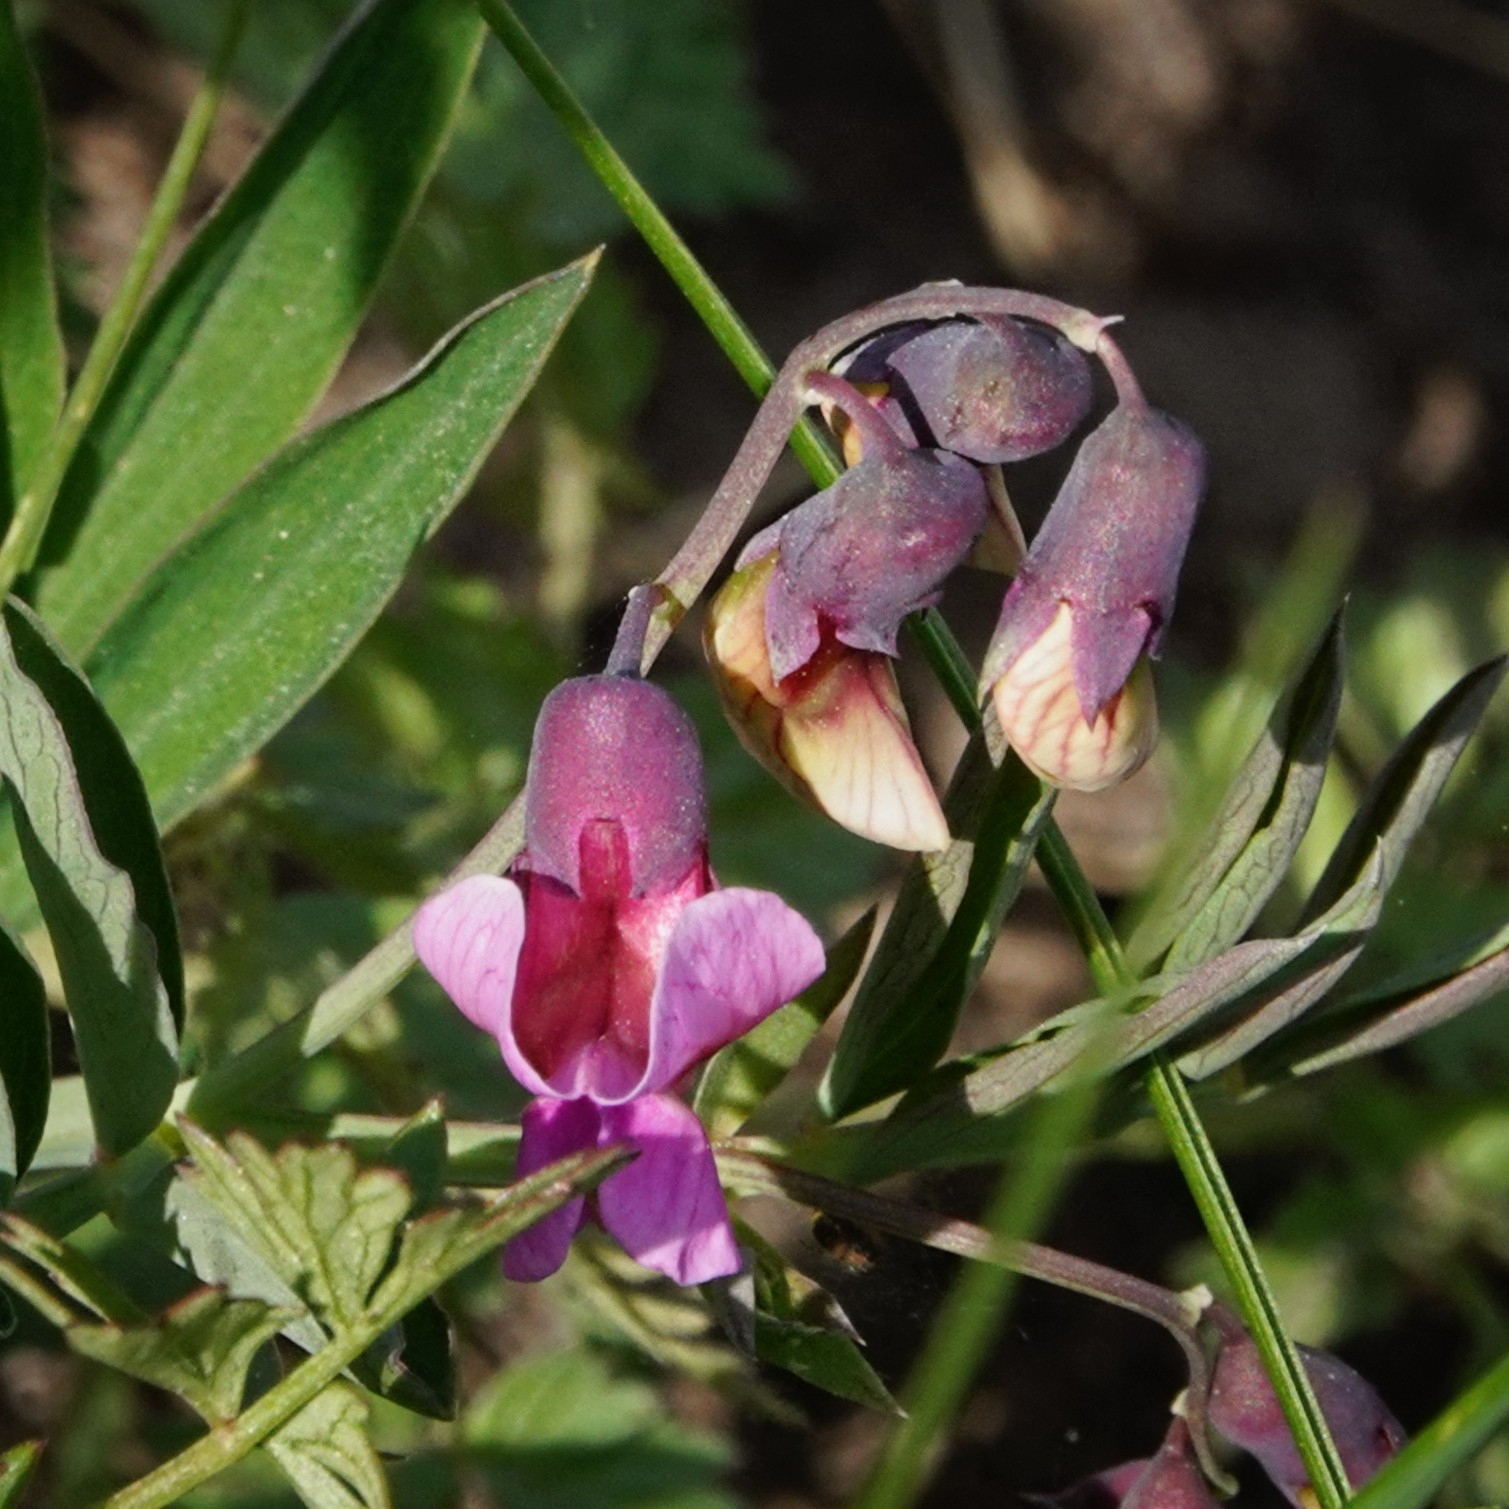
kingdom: Plantae
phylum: Tracheophyta
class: Magnoliopsida
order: Fabales
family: Fabaceae
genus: Lathyrus
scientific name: Lathyrus linifolius
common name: Bitter-vetch
